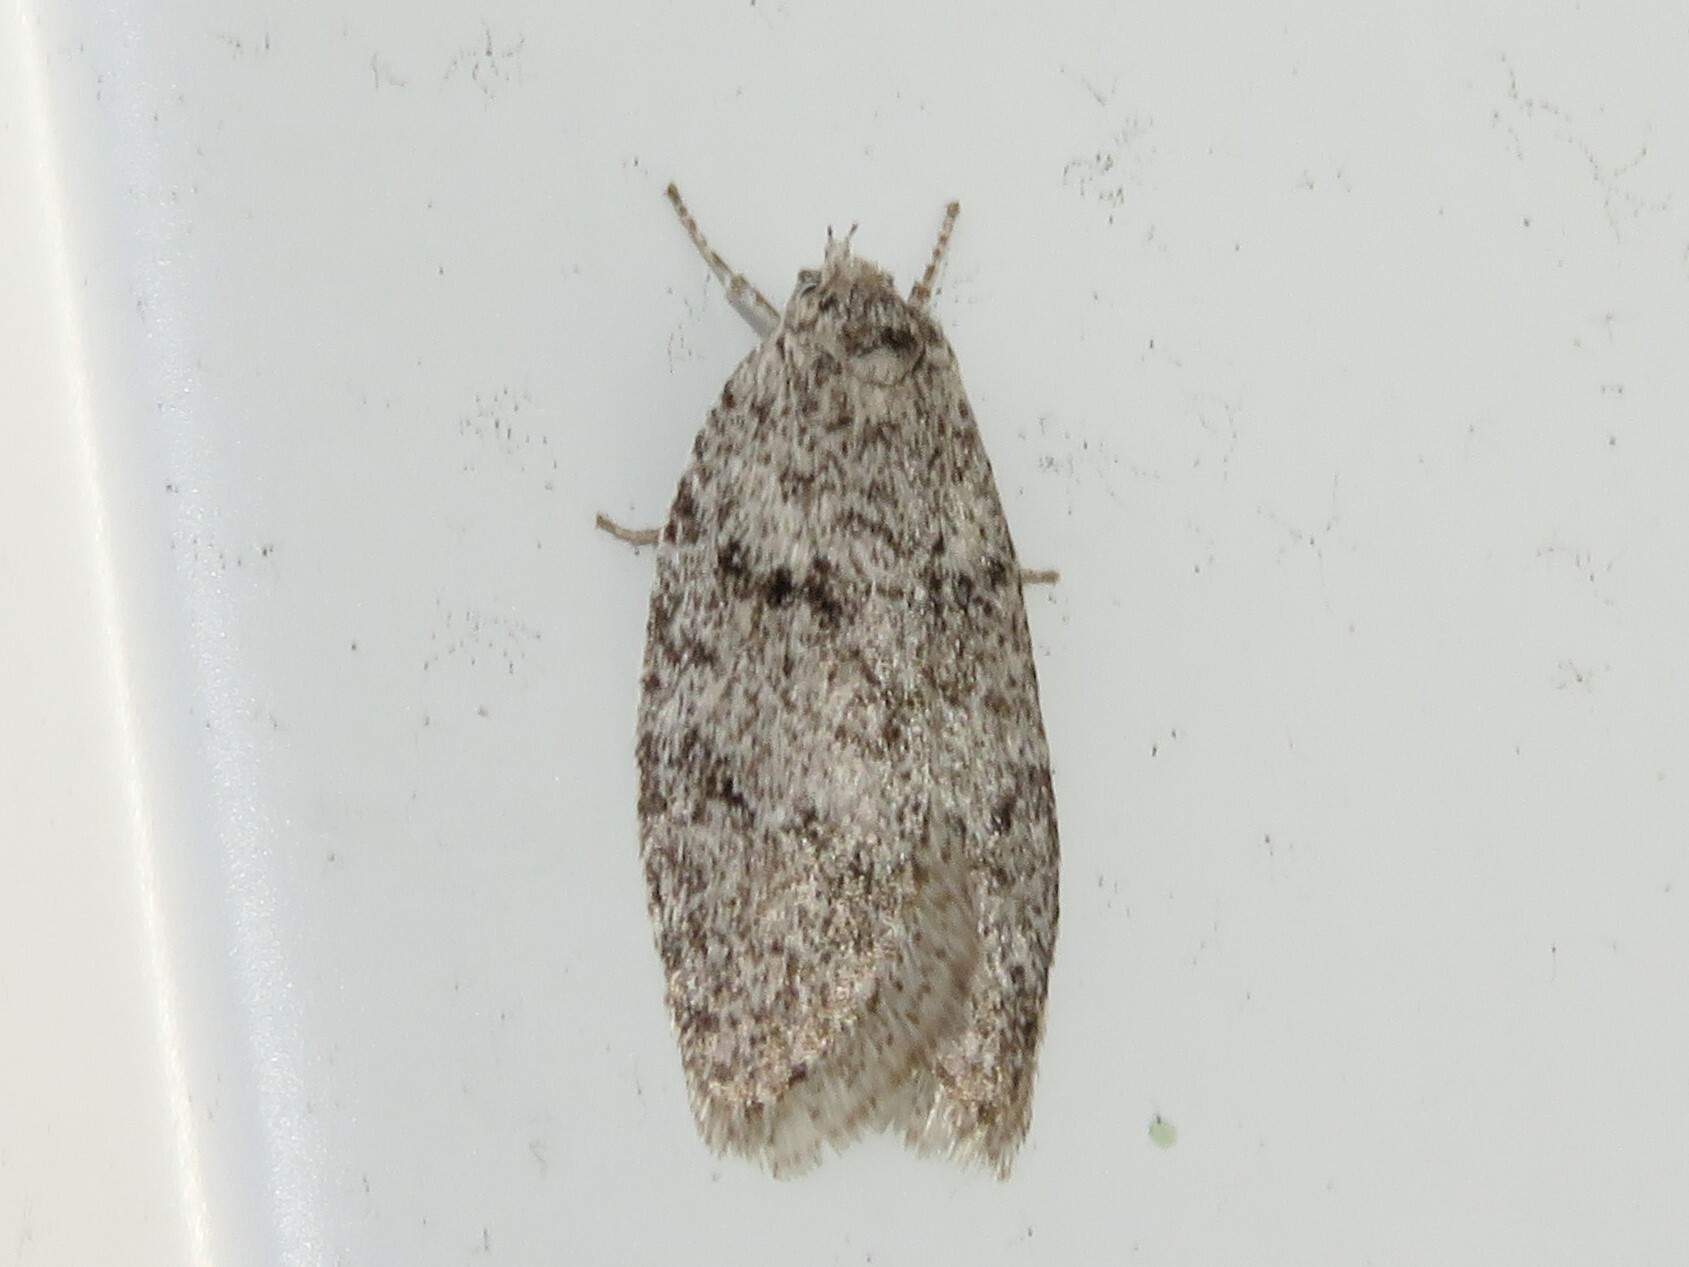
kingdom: Animalia
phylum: Arthropoda
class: Insecta
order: Lepidoptera
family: Depressariidae
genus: Semioscopis
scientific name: Semioscopis inornata
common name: Poplar micromoth
